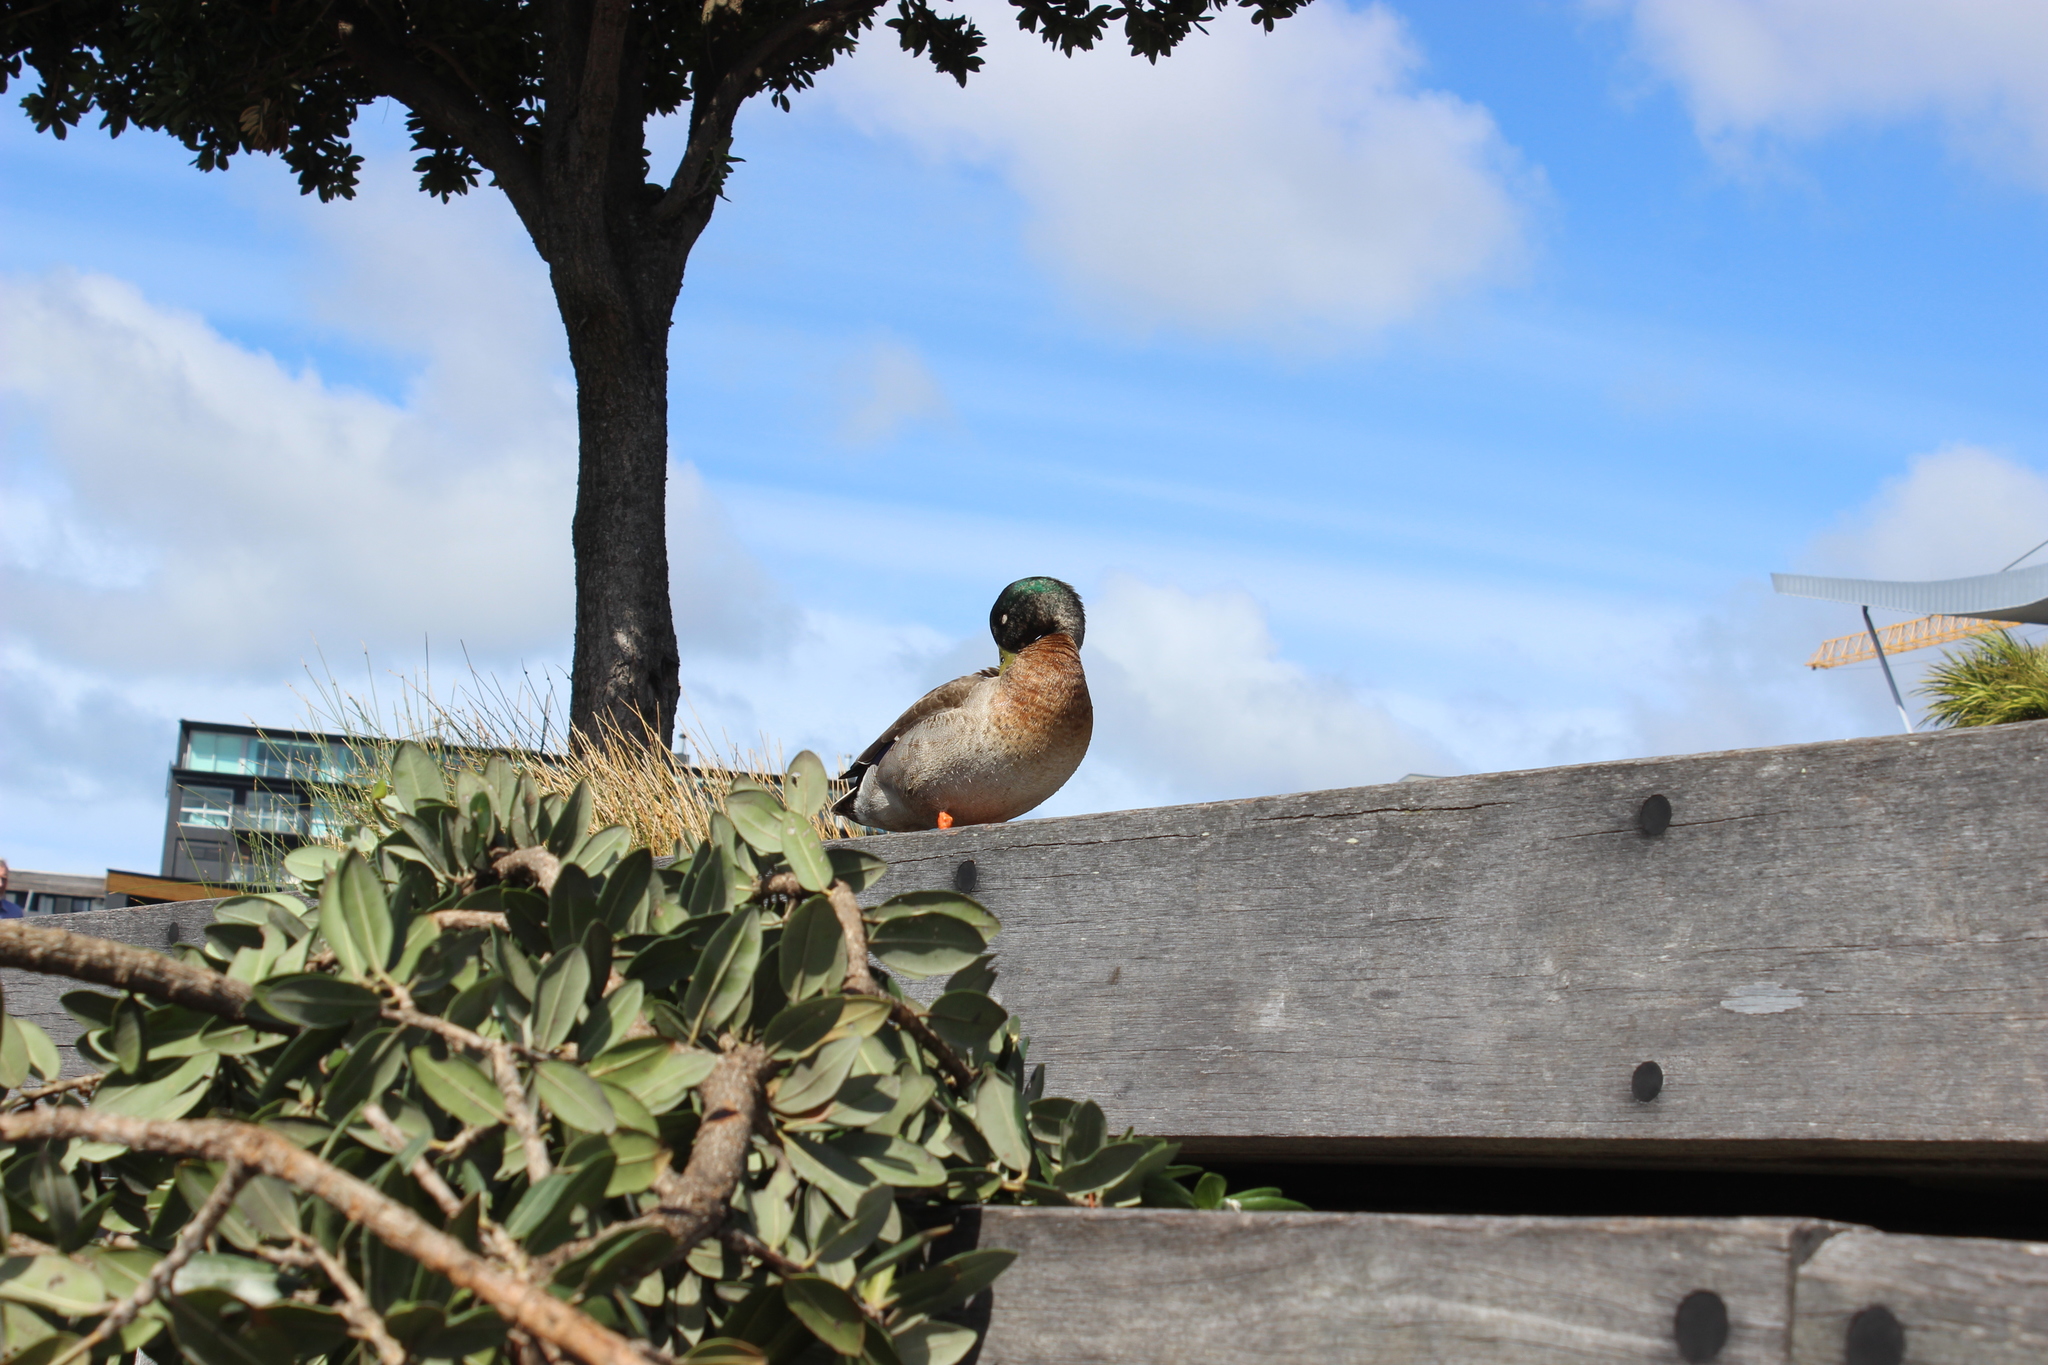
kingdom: Animalia
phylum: Chordata
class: Aves
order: Anseriformes
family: Anatidae
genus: Anas
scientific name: Anas platyrhynchos
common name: Mallard
